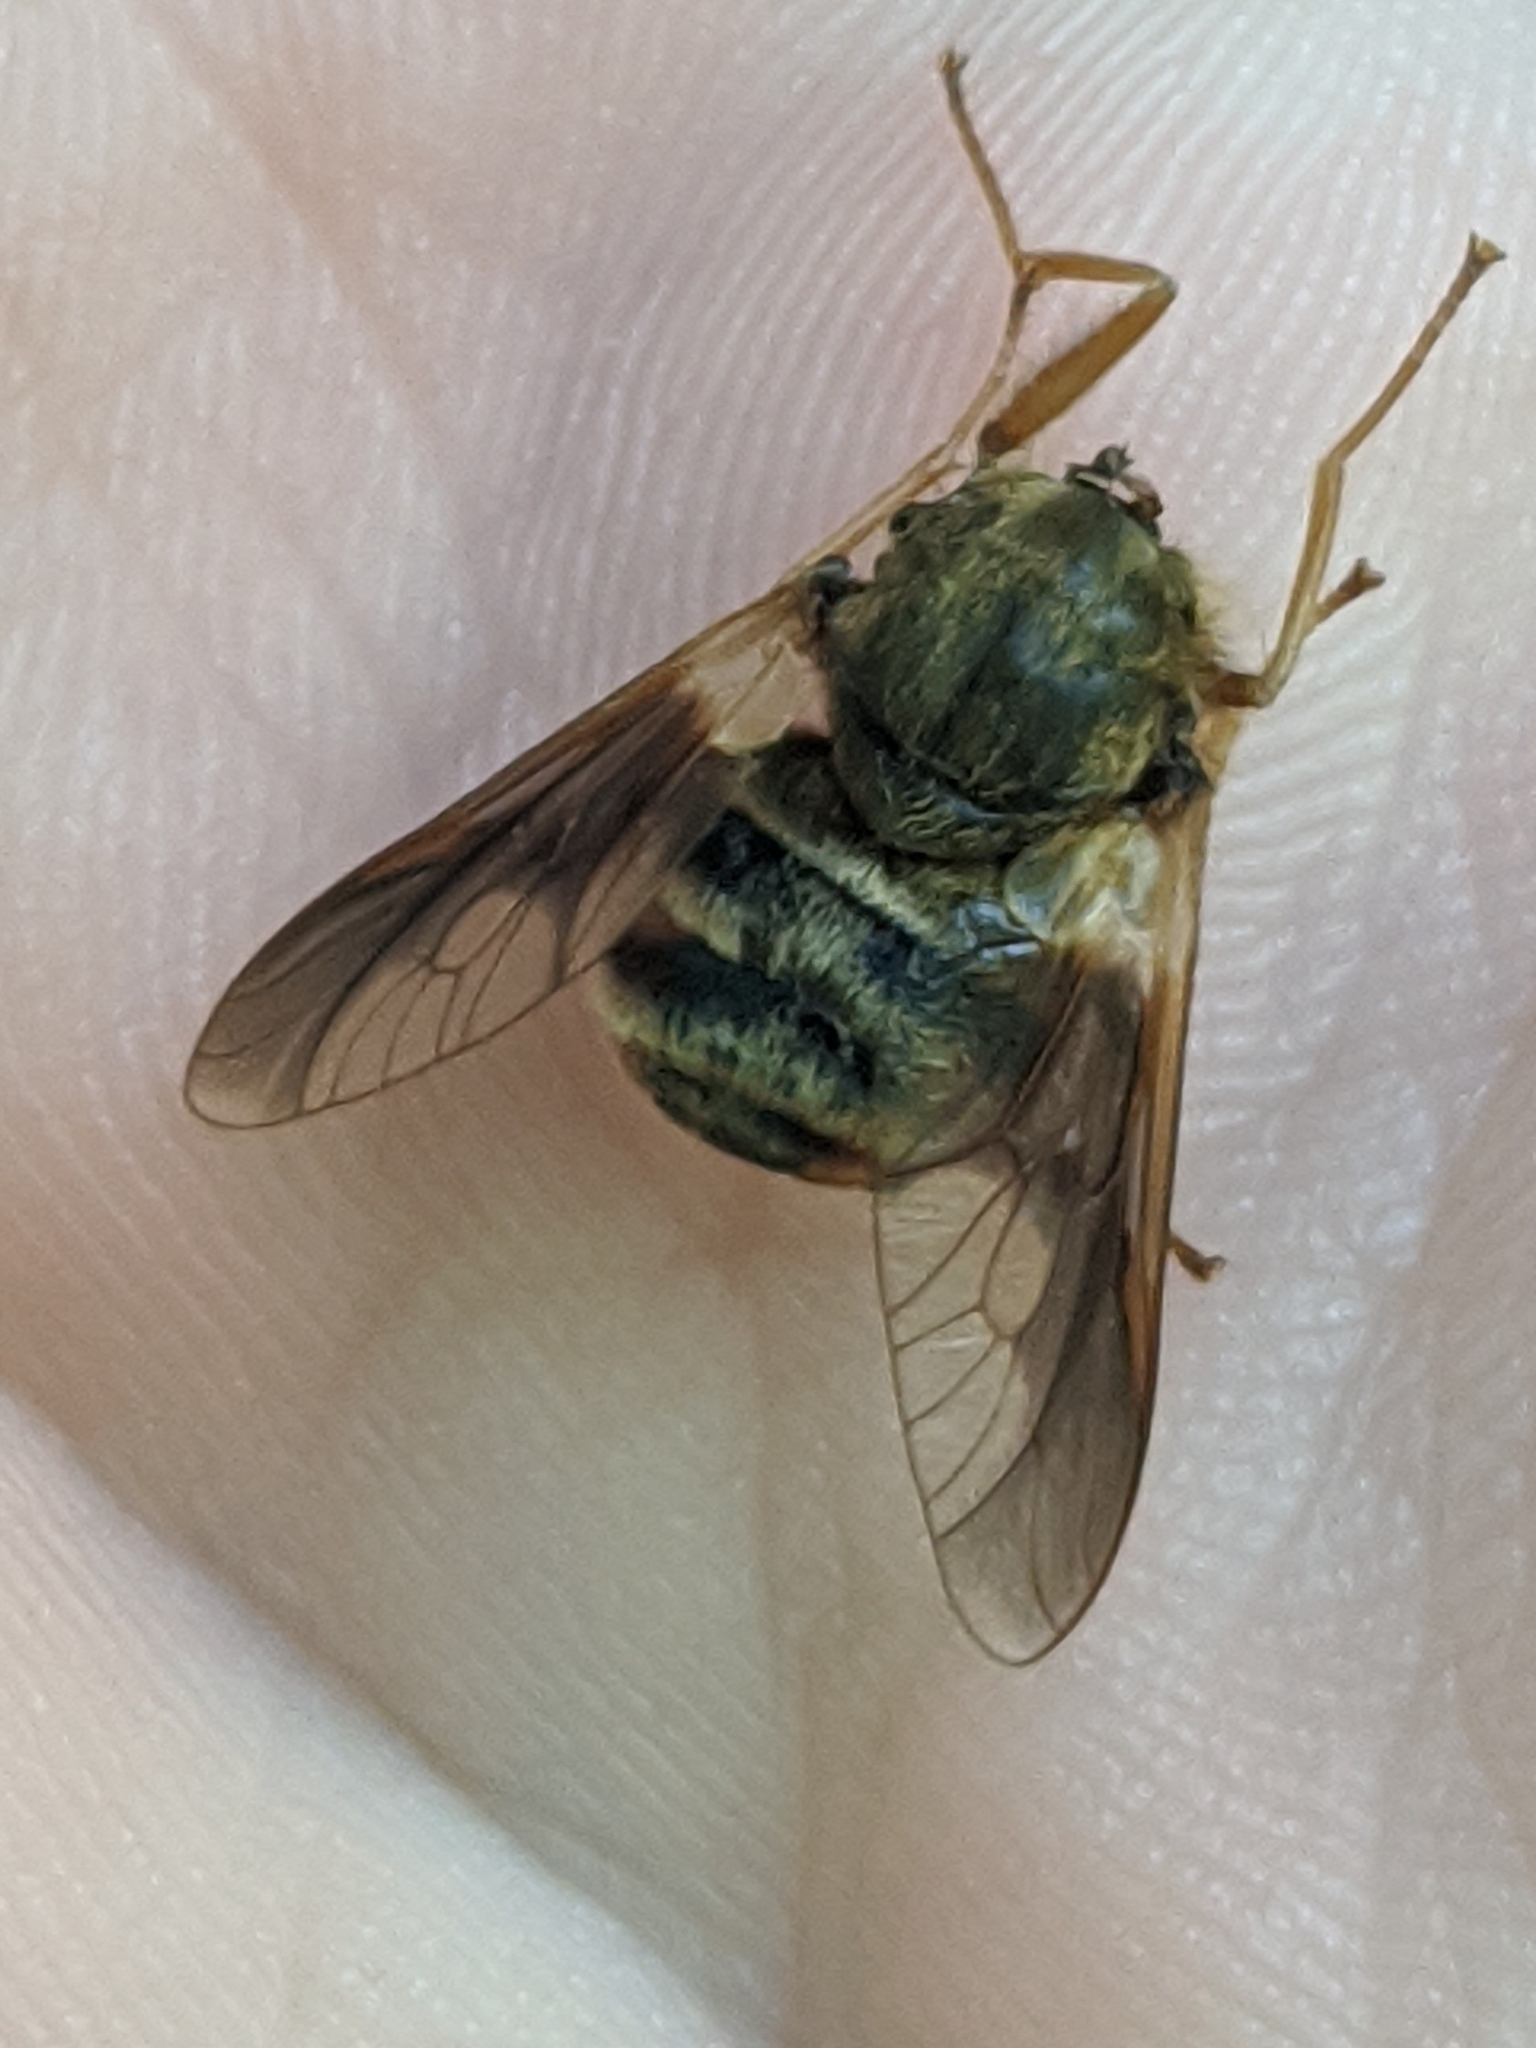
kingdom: Animalia
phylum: Arthropoda
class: Insecta
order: Diptera
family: Tabanidae
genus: Goniops
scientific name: Goniops chrysocoma
